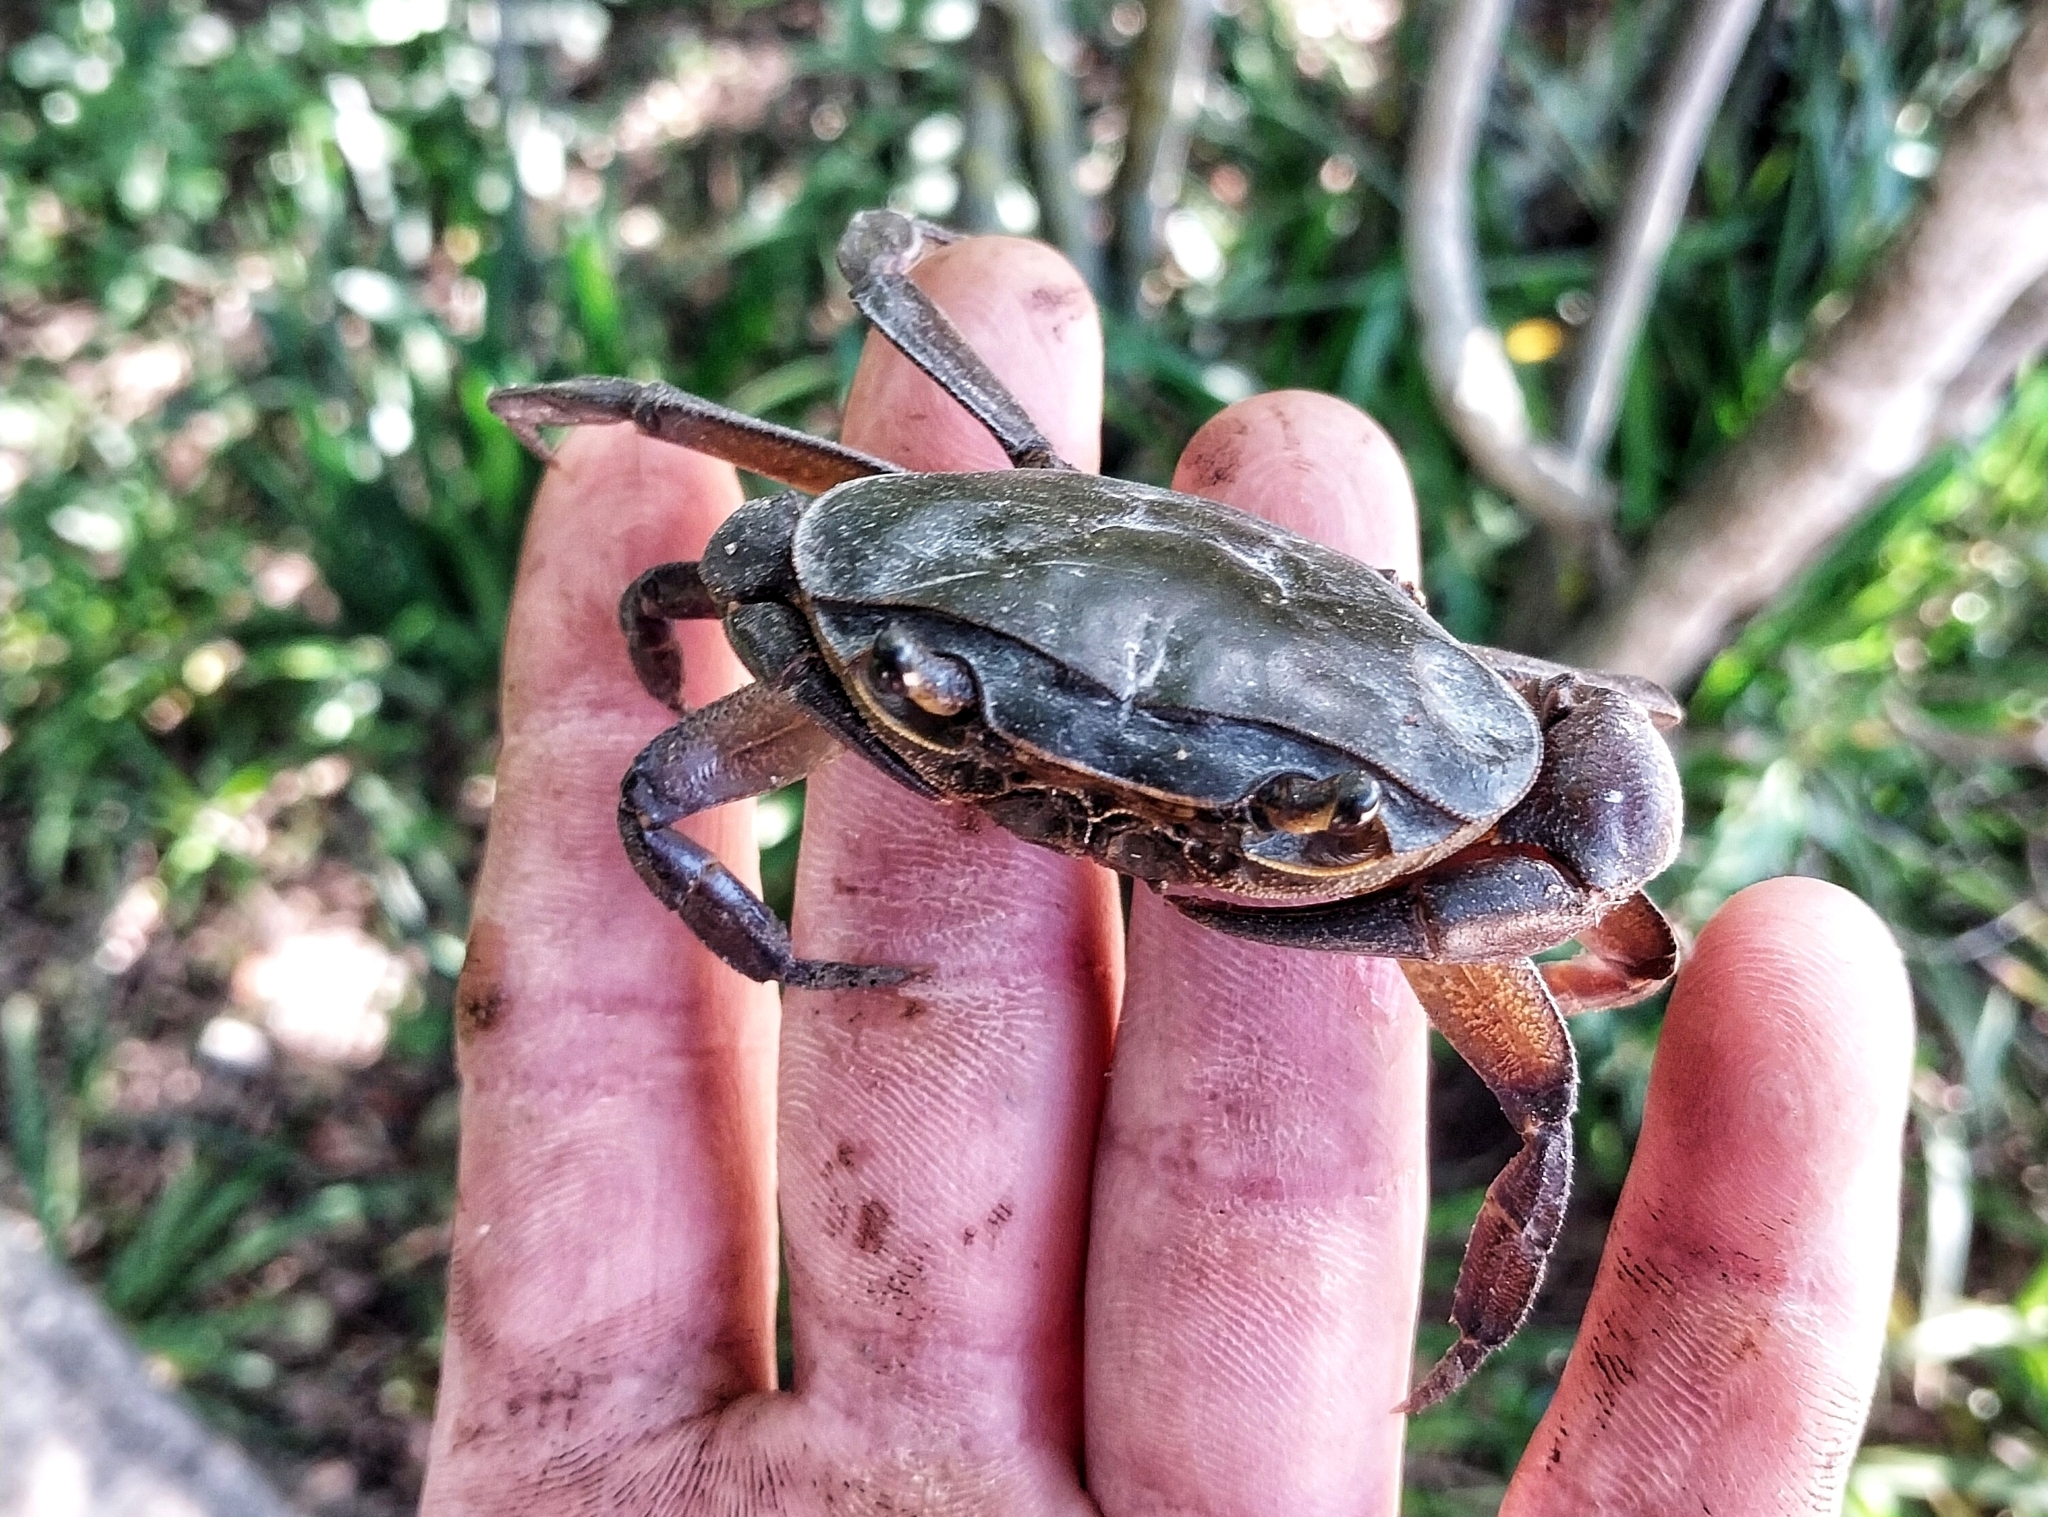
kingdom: Animalia
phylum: Arthropoda
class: Malacostraca
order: Decapoda
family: Potamonautidae
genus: Potamonautes
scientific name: Potamonautes barbarai
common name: Barbara's crab
